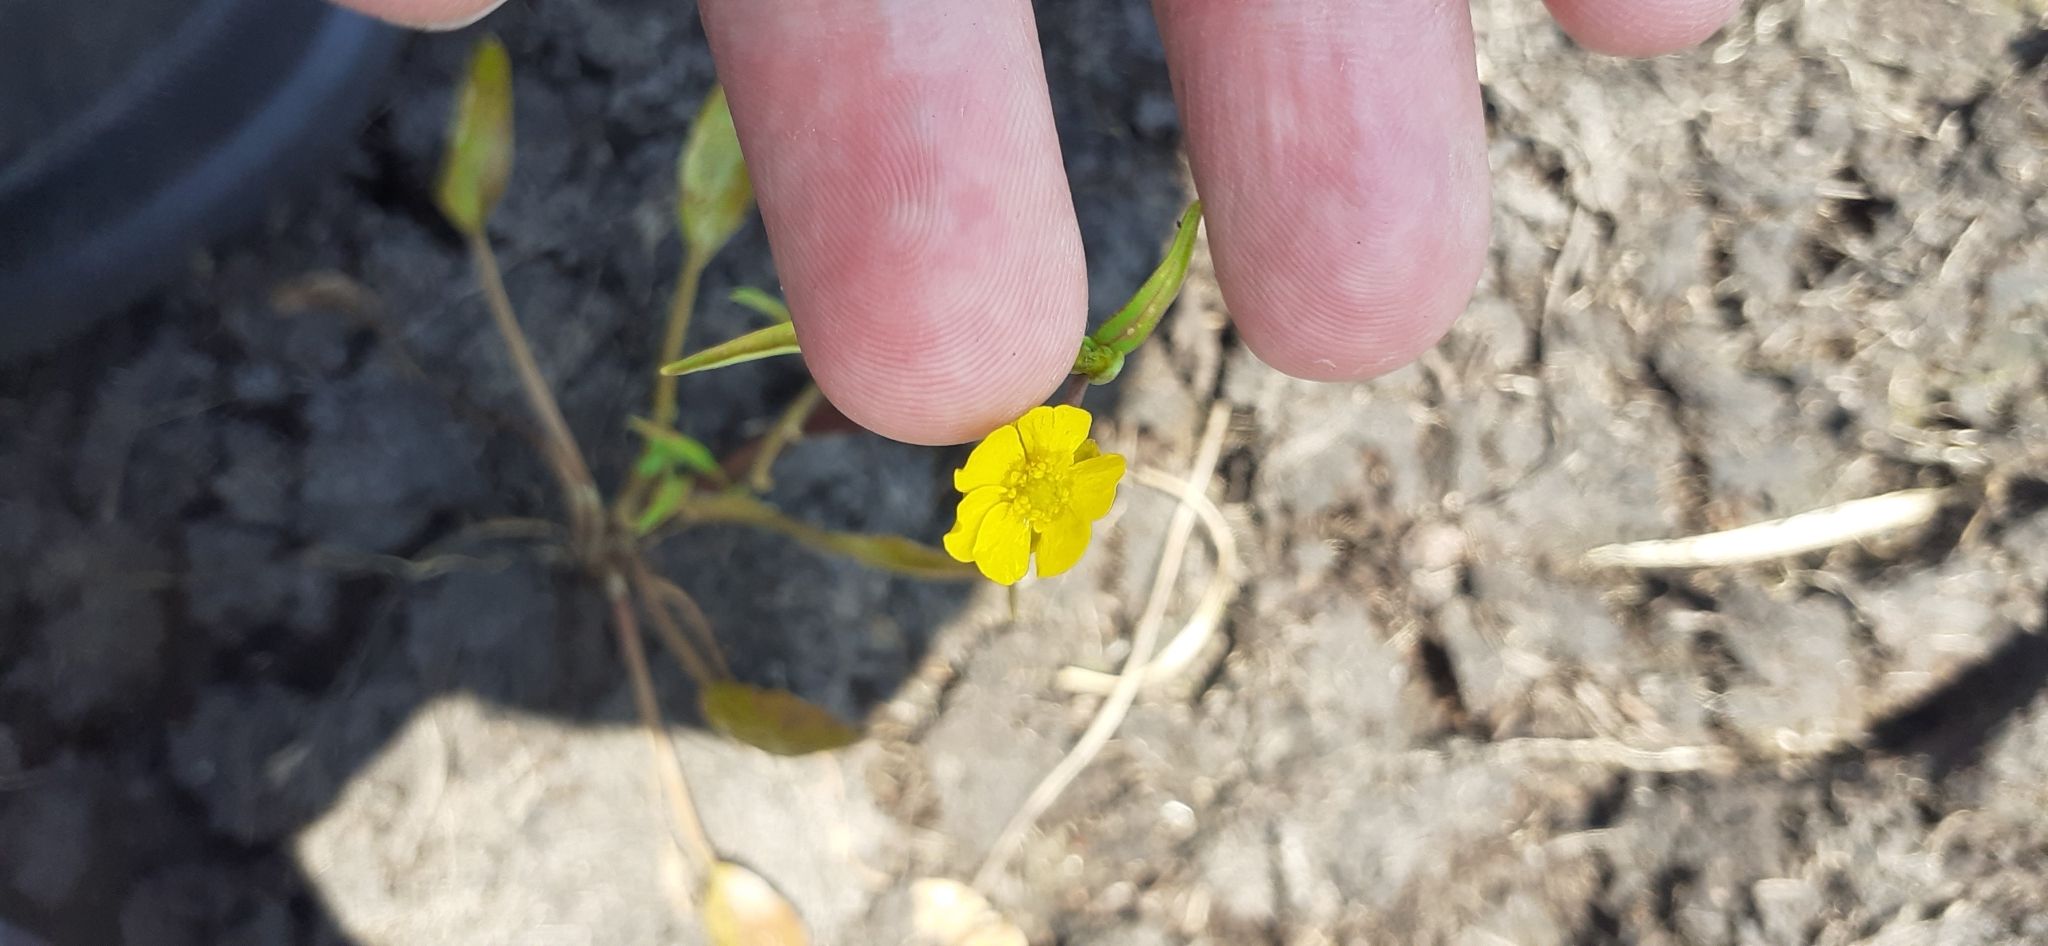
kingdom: Plantae
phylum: Tracheophyta
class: Magnoliopsida
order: Ranunculales
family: Ranunculaceae
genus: Ranunculus
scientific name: Ranunculus flammula
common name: Lesser spearwort
